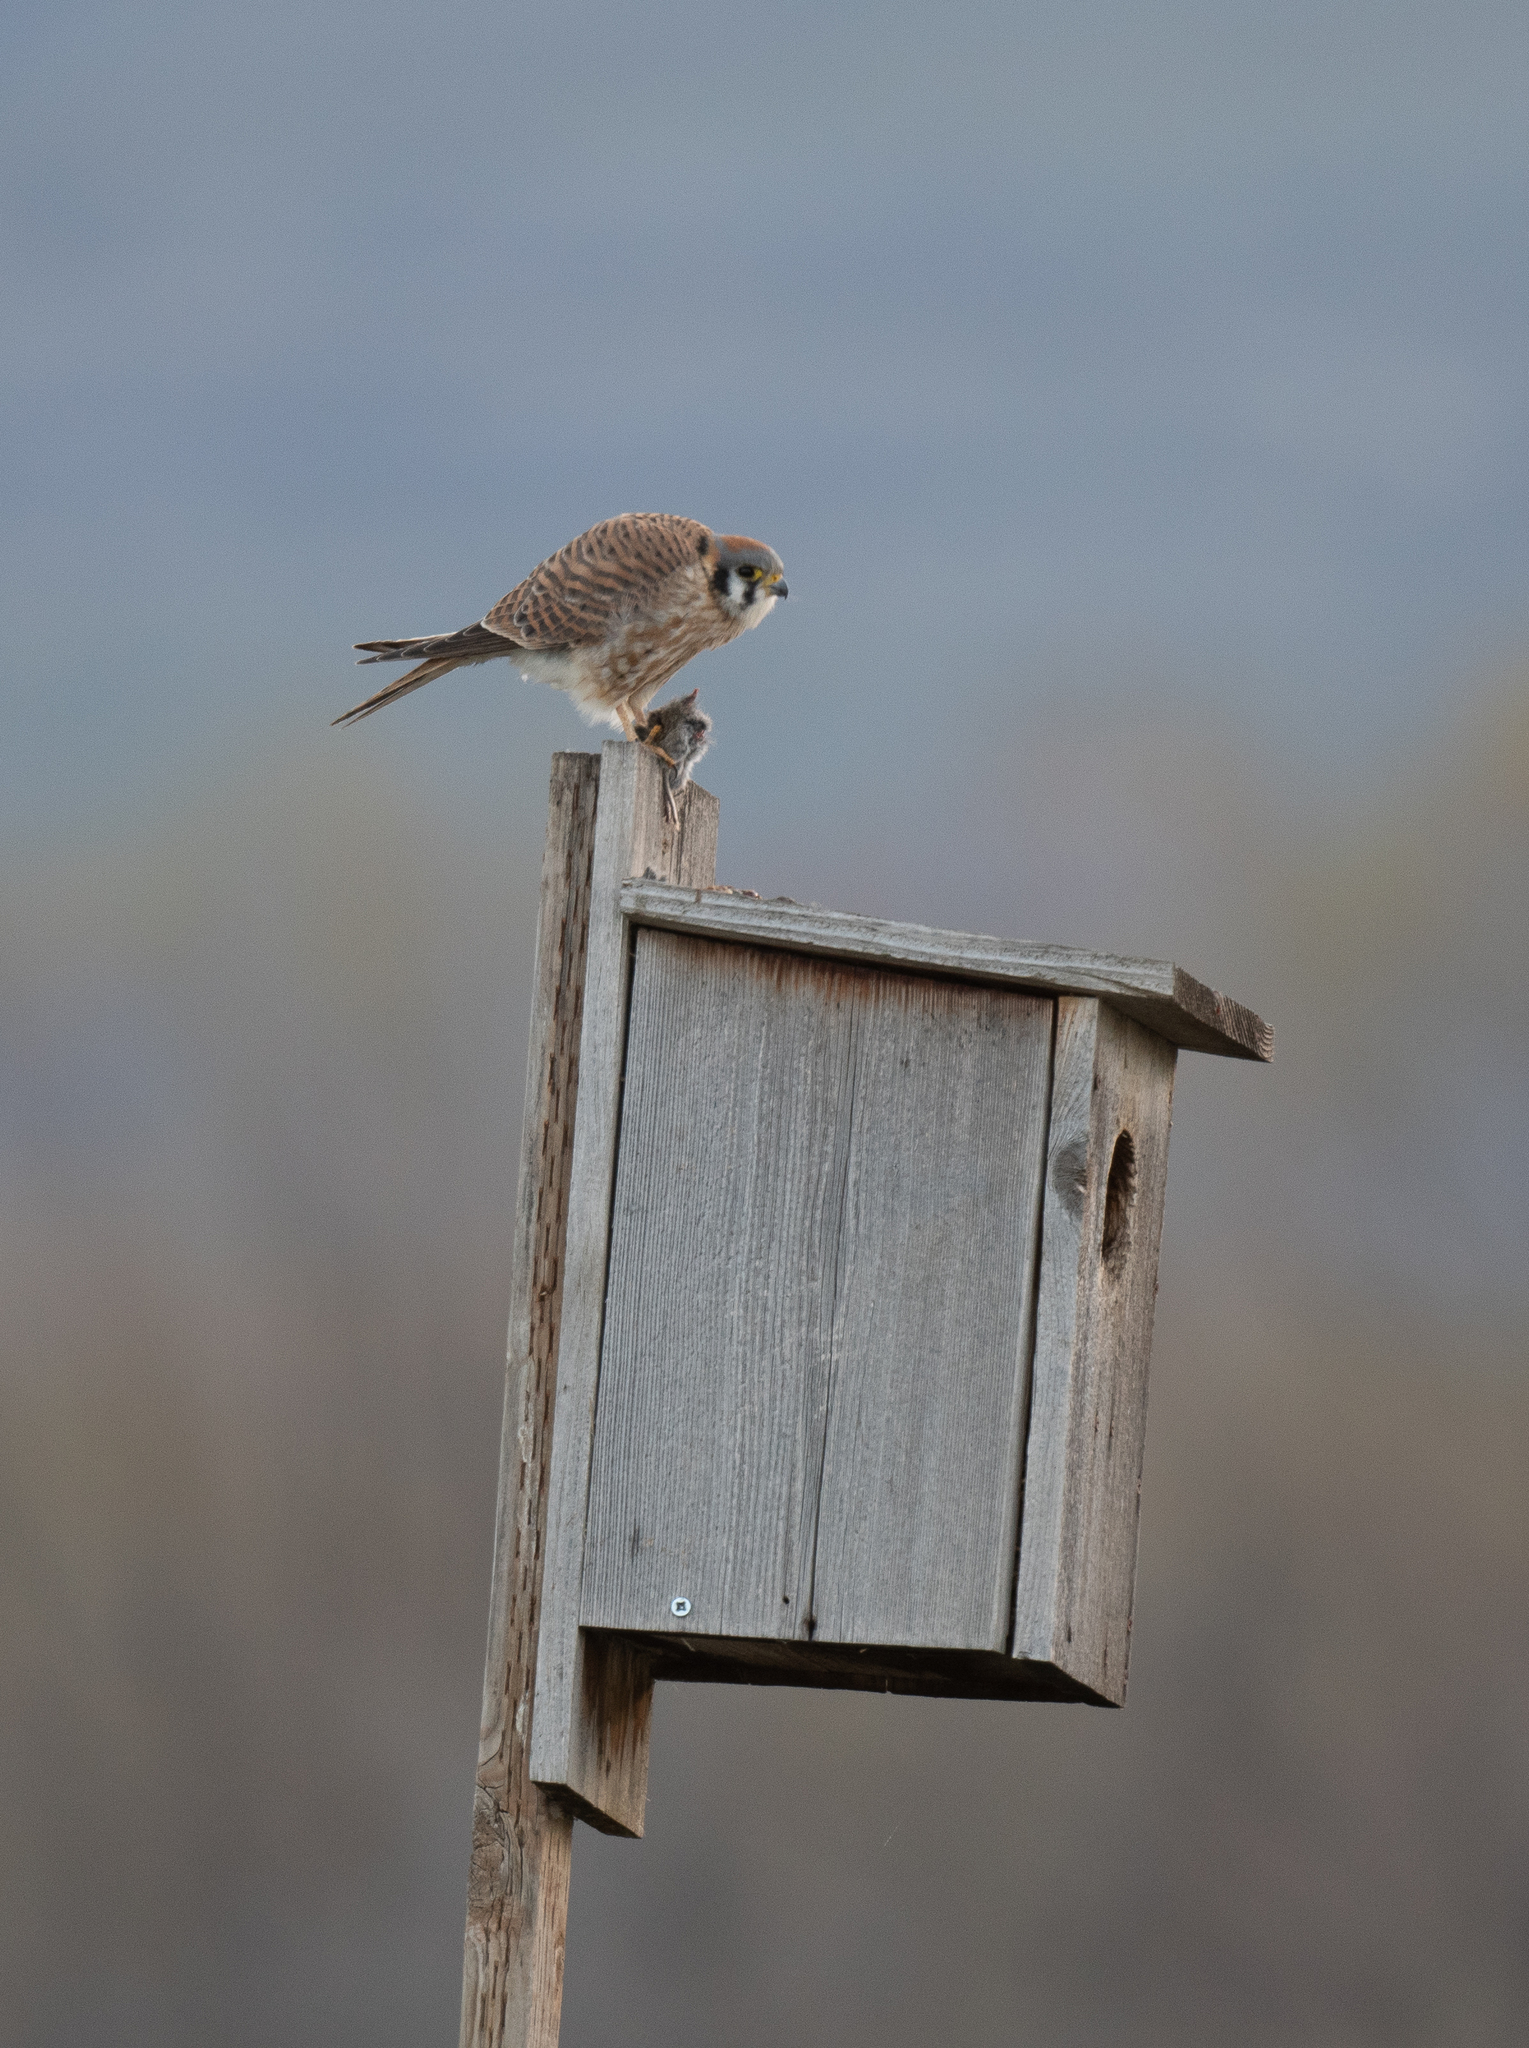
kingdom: Animalia
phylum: Chordata
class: Aves
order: Falconiformes
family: Falconidae
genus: Falco
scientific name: Falco sparverius
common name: American kestrel
